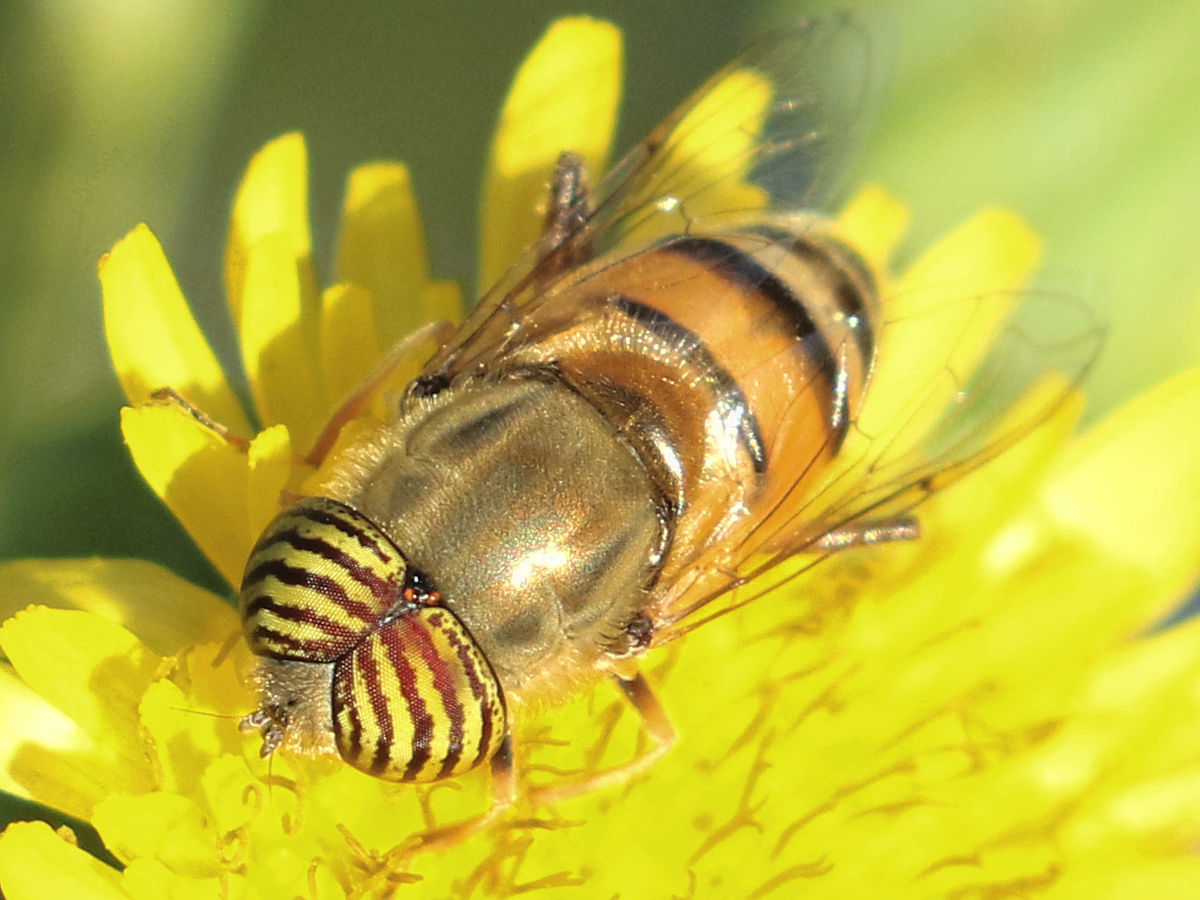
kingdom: Animalia
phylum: Arthropoda
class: Insecta
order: Diptera
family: Syrphidae
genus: Eristalinus
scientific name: Eristalinus taeniops
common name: Syrphid fly
